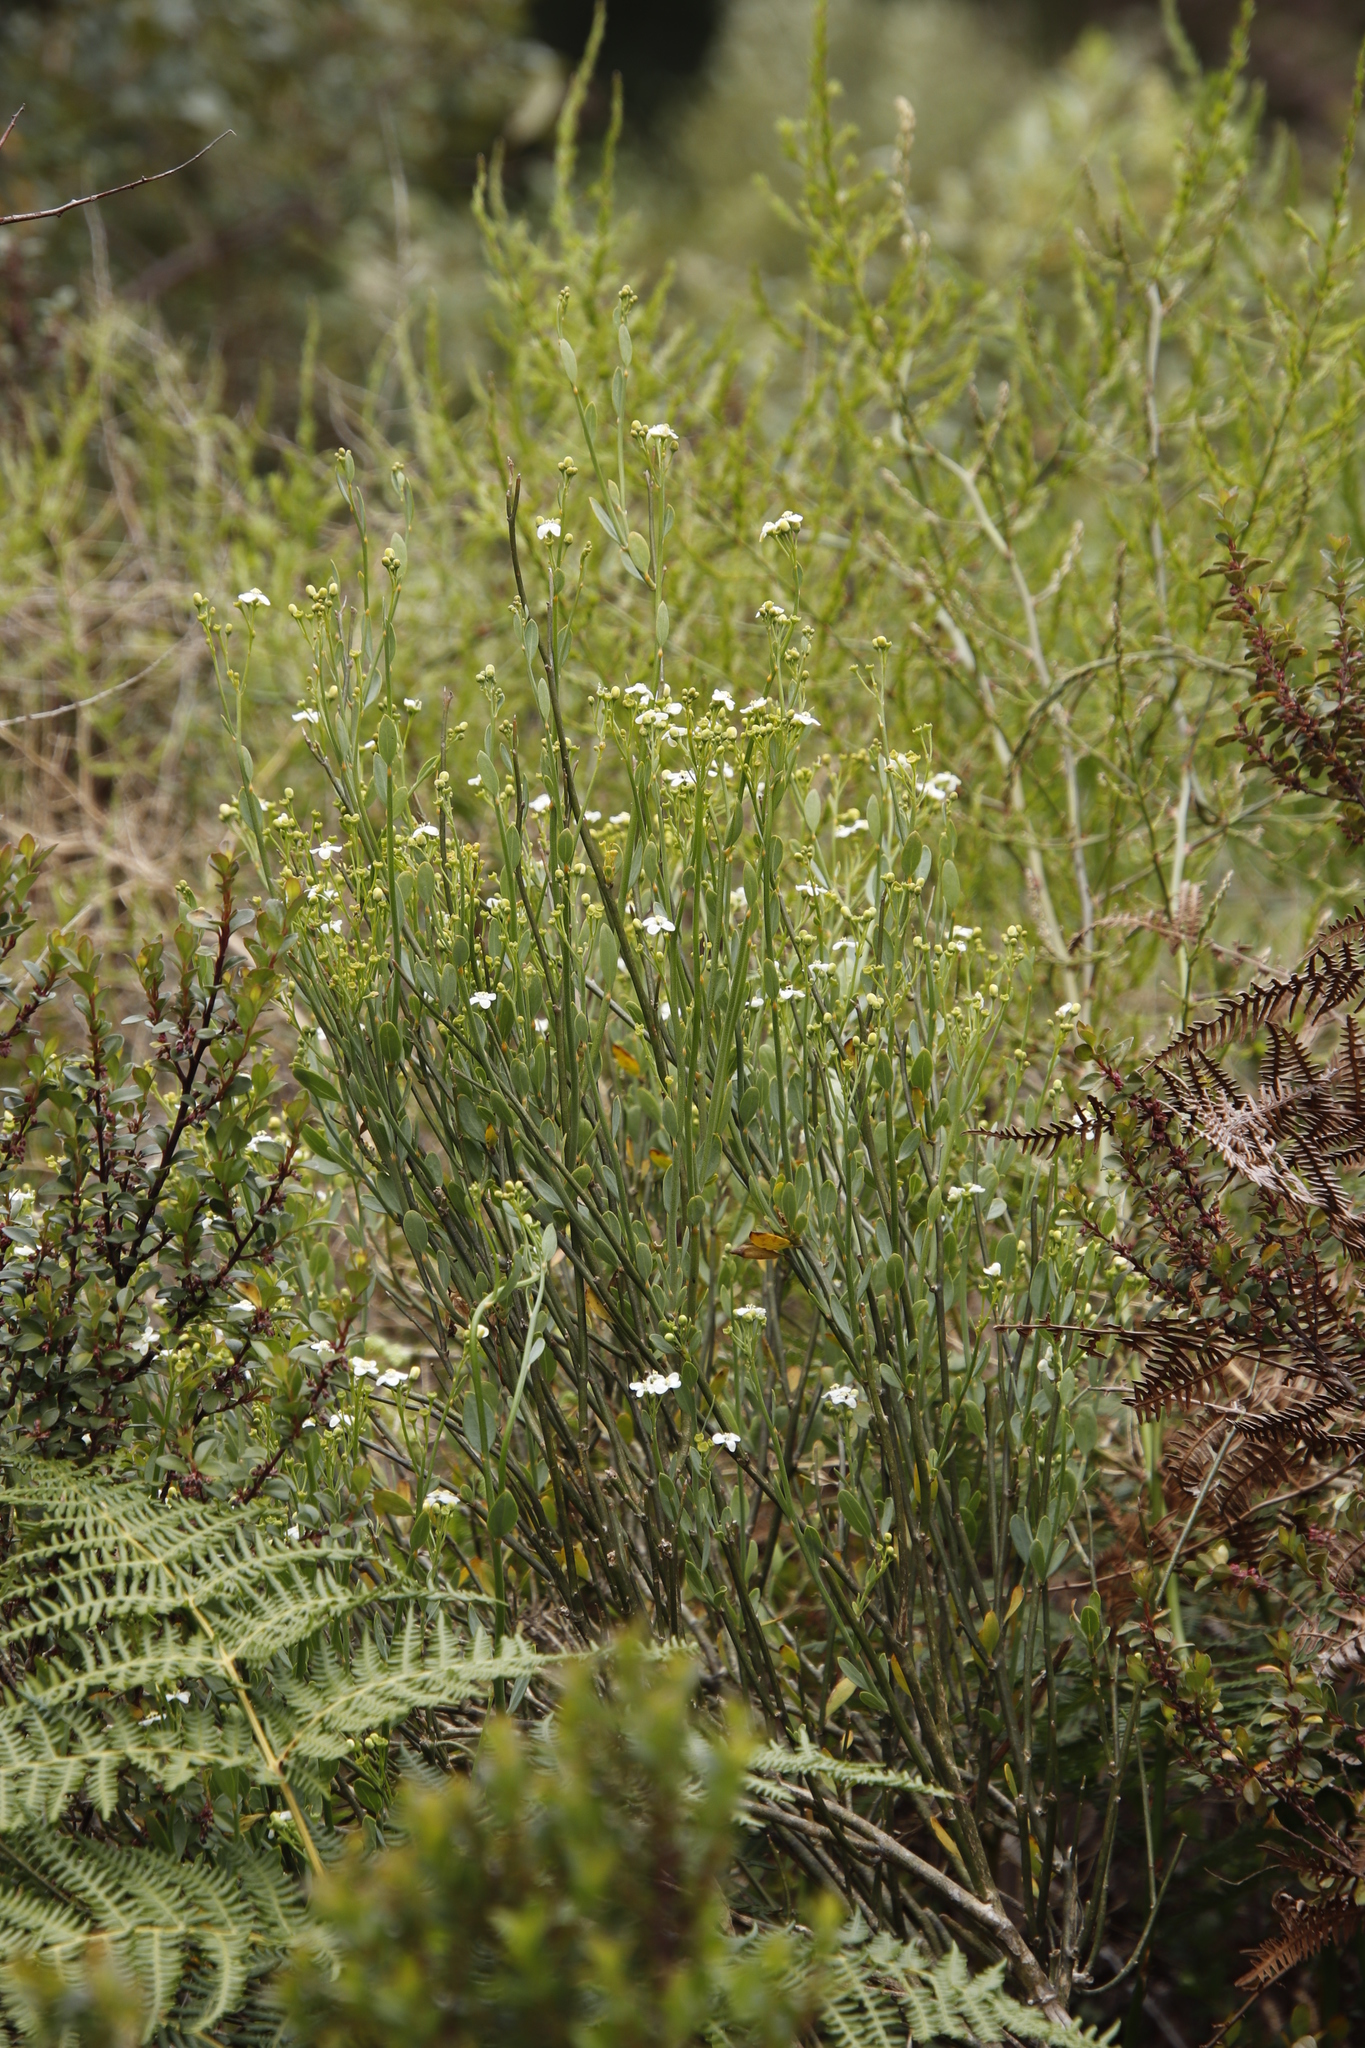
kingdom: Plantae
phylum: Tracheophyta
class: Magnoliopsida
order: Solanales
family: Montiniaceae
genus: Montinia
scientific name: Montinia caryophyllacea
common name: Wild clove-bush
